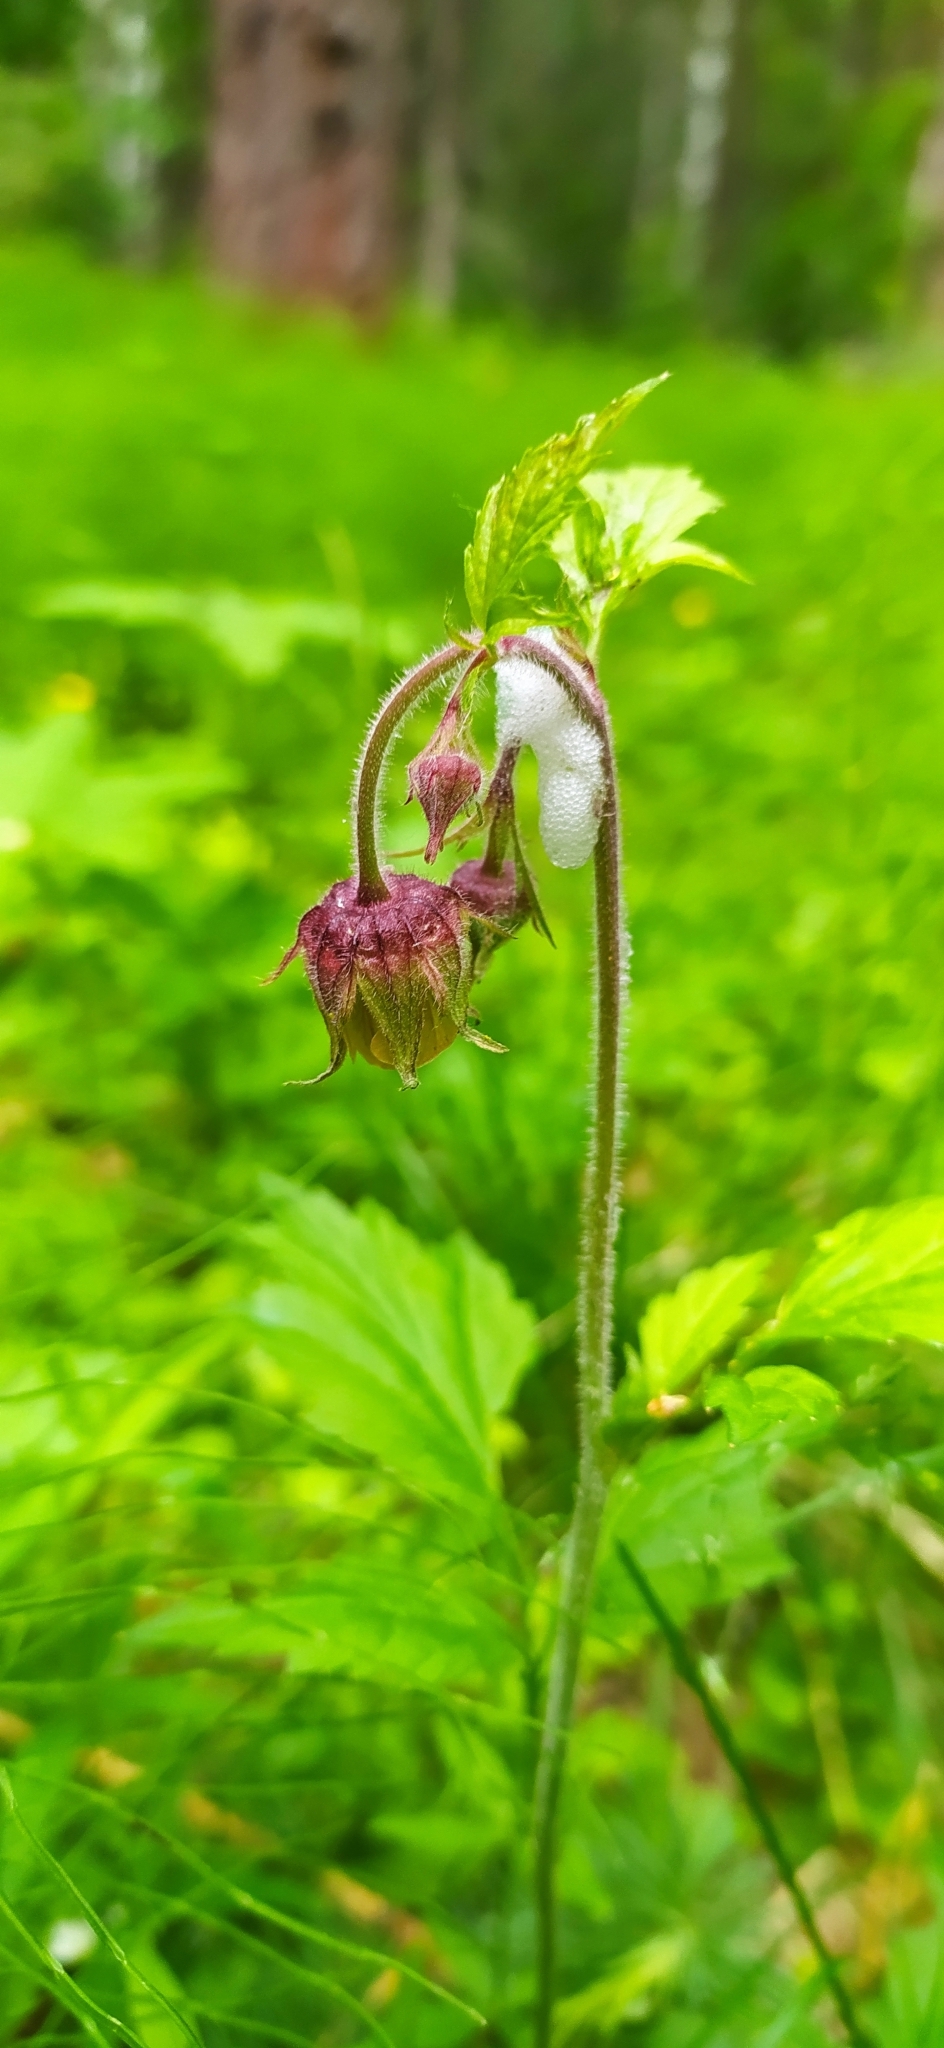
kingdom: Plantae
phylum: Tracheophyta
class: Magnoliopsida
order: Rosales
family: Rosaceae
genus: Geum
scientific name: Geum rivale
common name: Water avens
